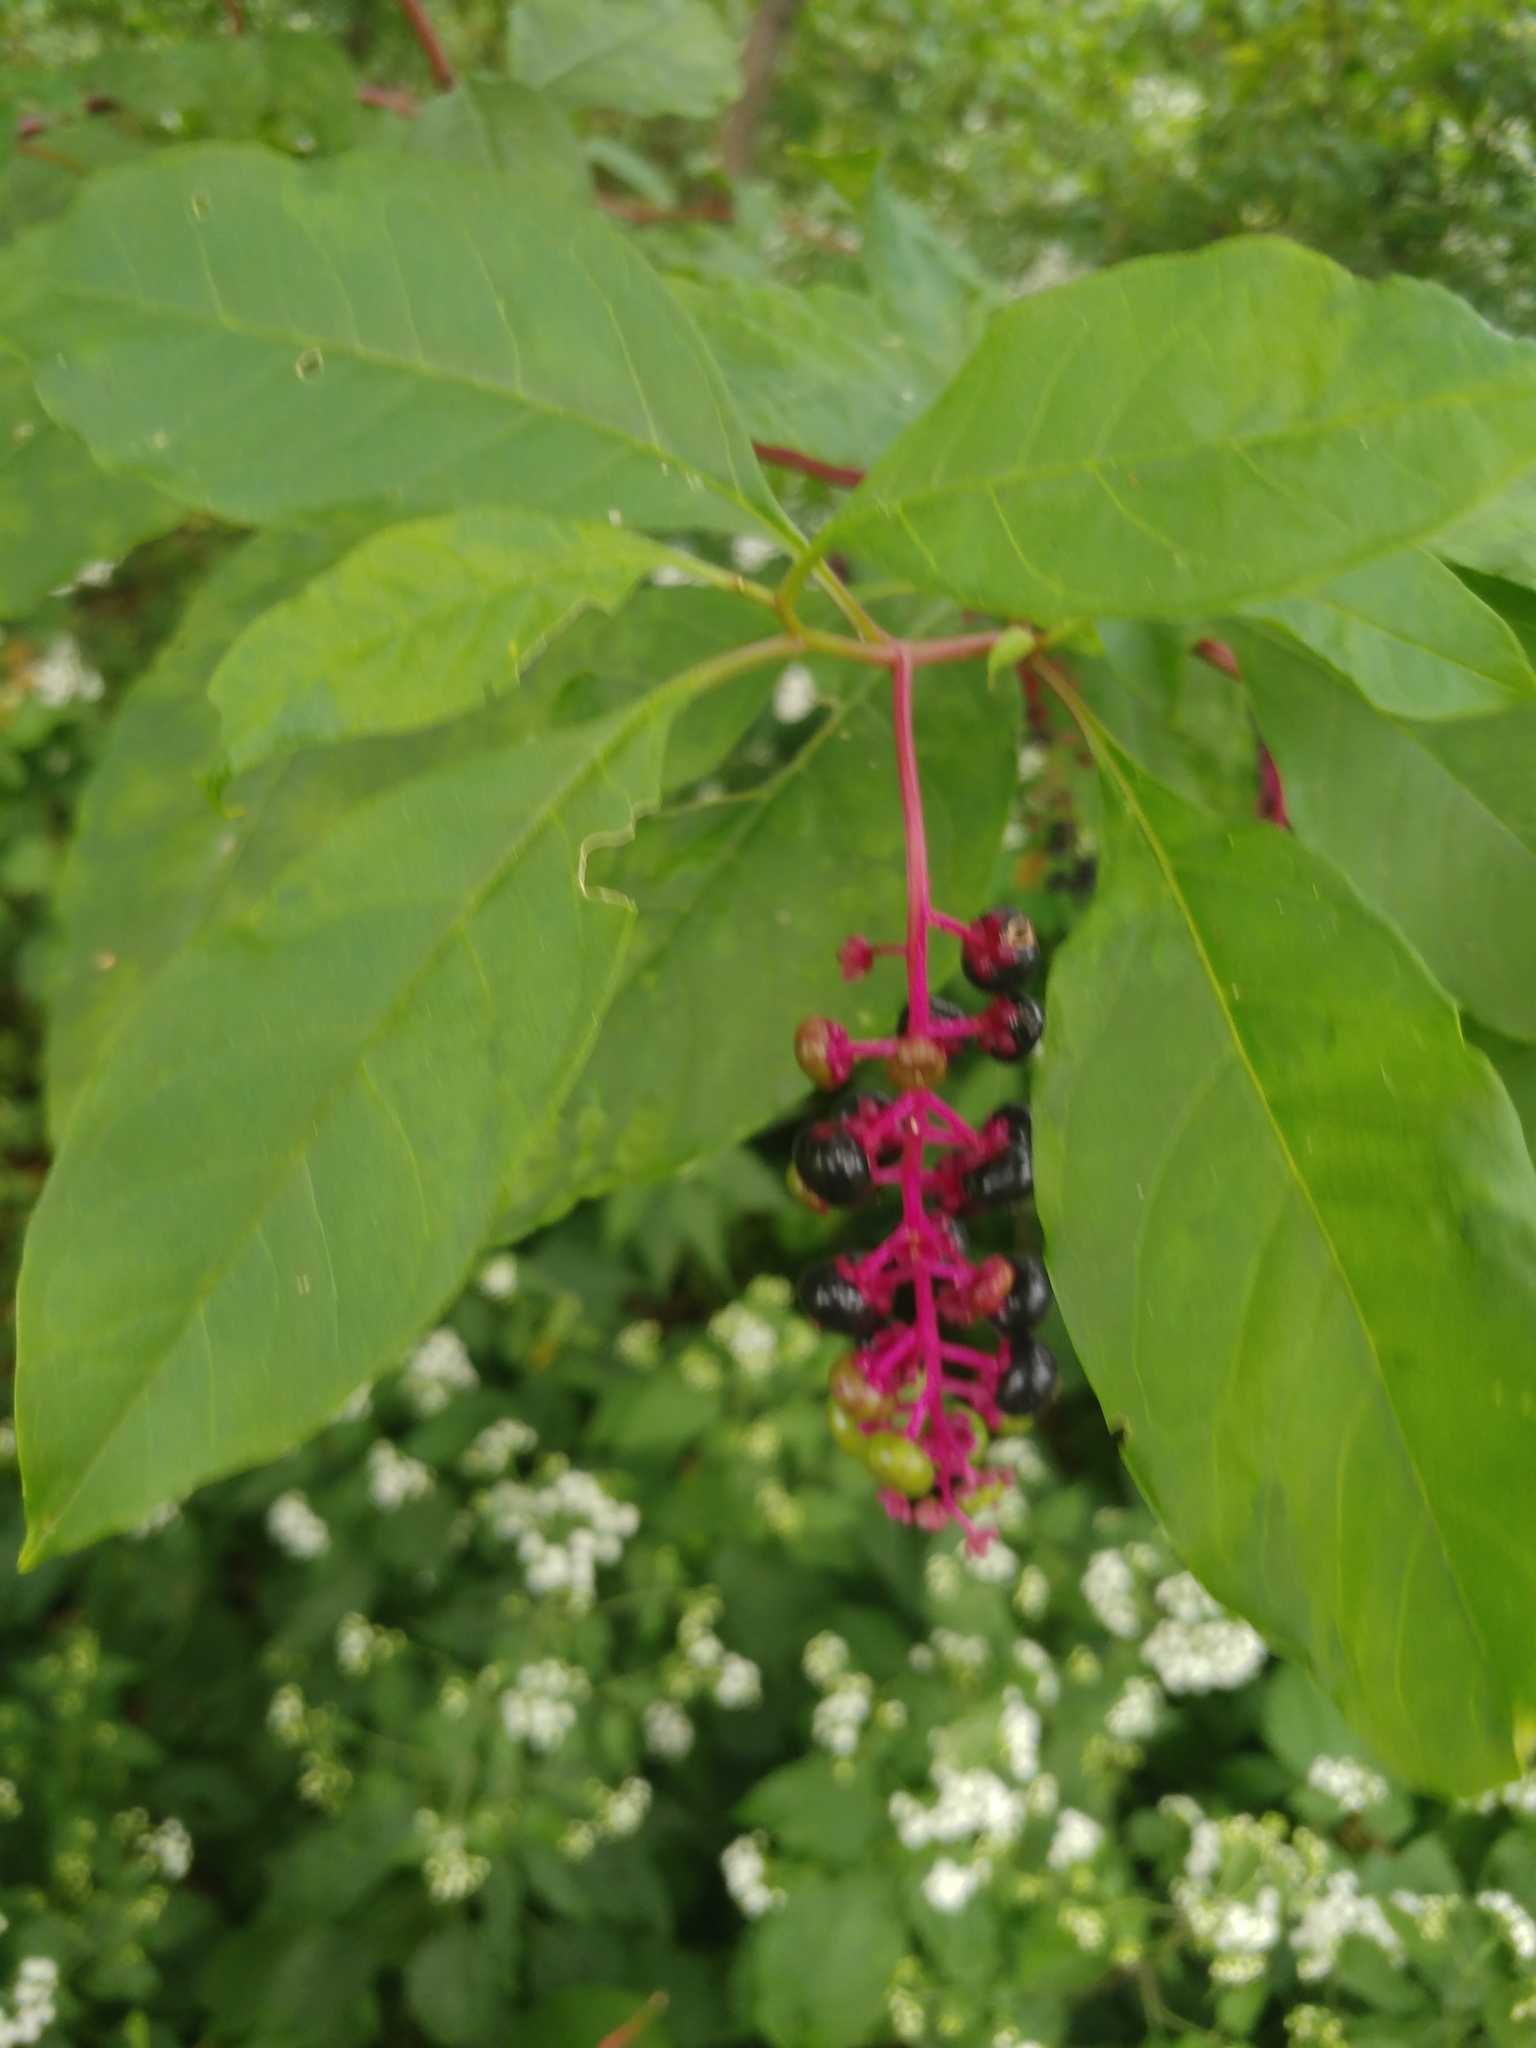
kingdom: Plantae
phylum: Tracheophyta
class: Magnoliopsida
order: Caryophyllales
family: Phytolaccaceae
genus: Phytolacca
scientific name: Phytolacca americana
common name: American pokeweed
